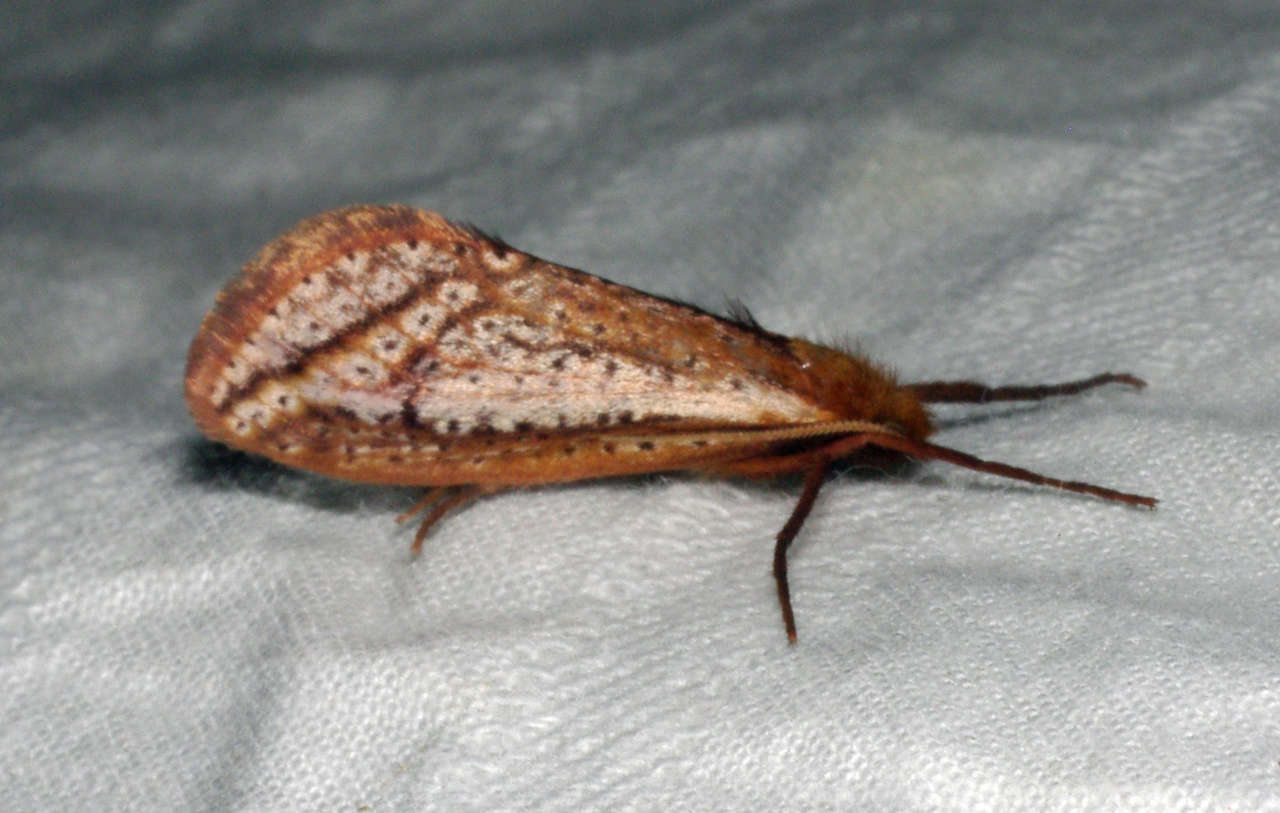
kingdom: Animalia
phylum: Arthropoda
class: Insecta
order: Lepidoptera
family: Hepialidae
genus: Fraus
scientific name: Fraus nanus
